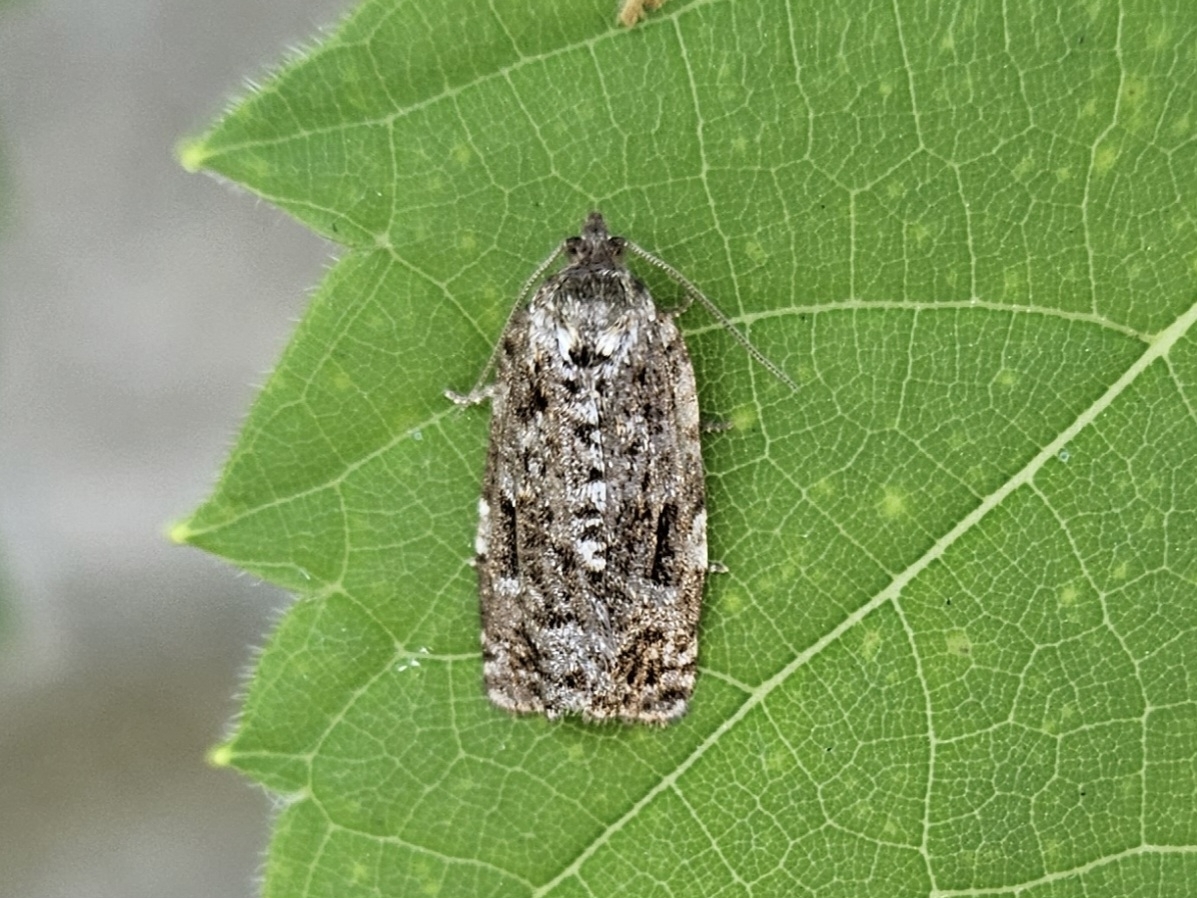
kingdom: Animalia
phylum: Arthropoda
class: Insecta
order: Lepidoptera
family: Tortricidae
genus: Choristoneura
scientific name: Choristoneura fumiferana
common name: Spruce budworm
